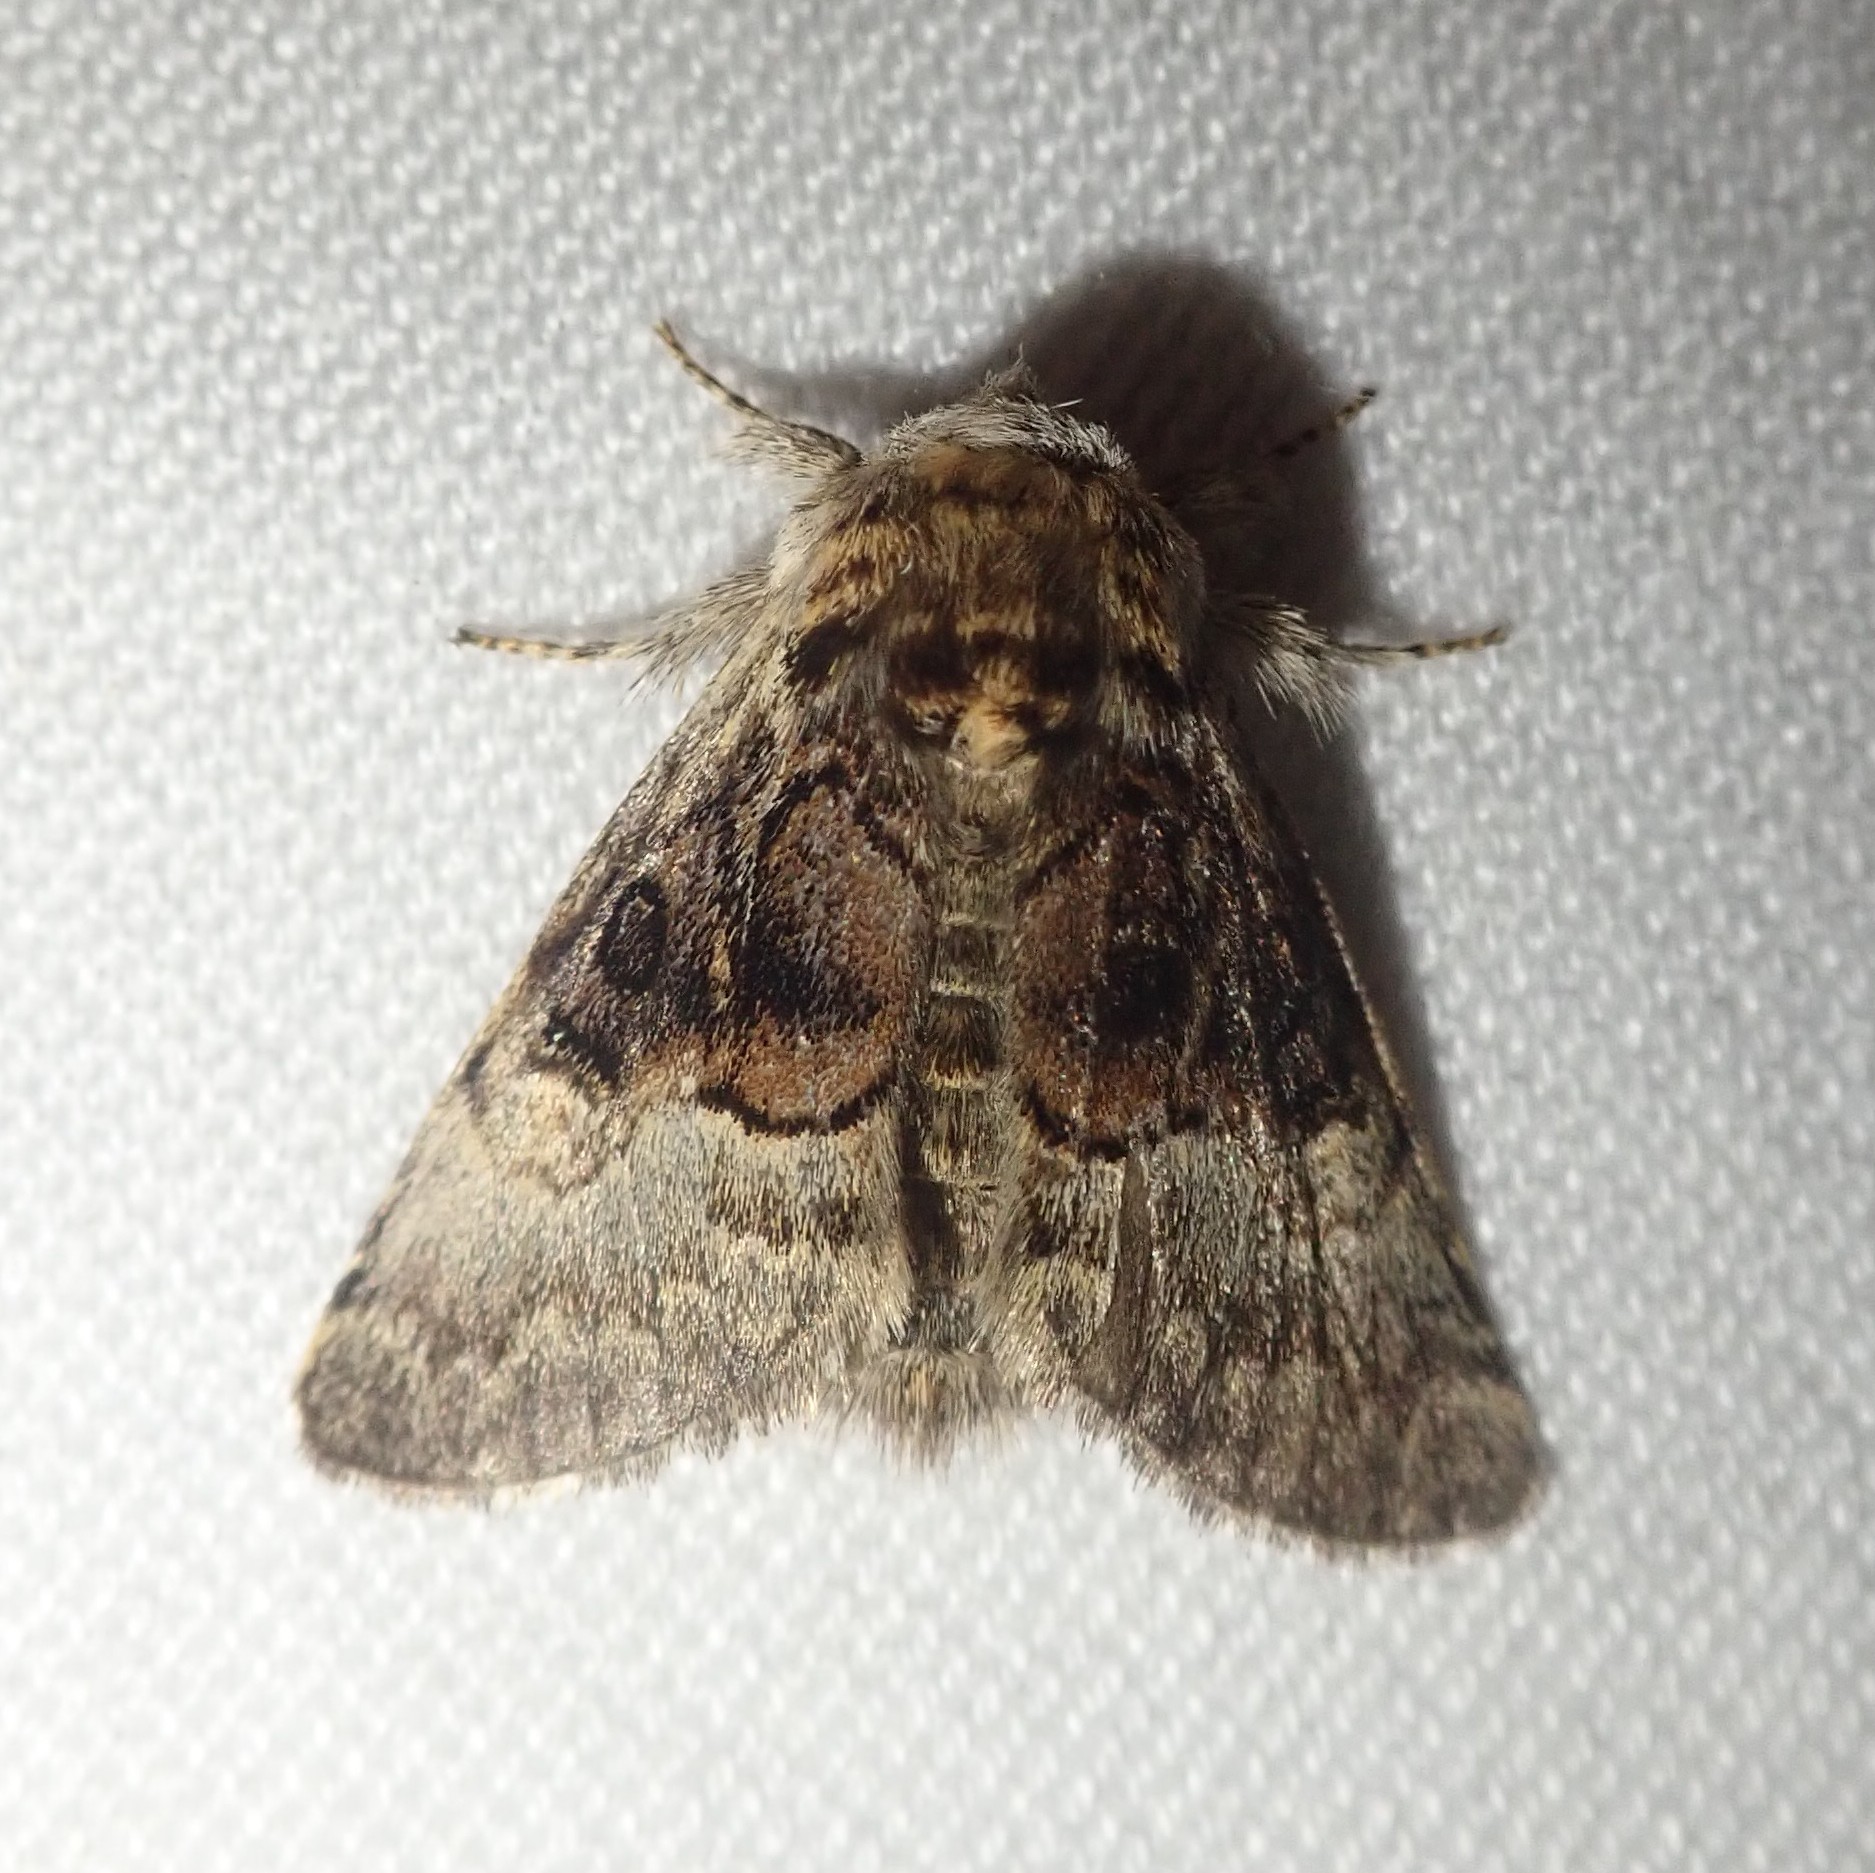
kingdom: Animalia
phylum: Arthropoda
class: Insecta
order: Lepidoptera
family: Noctuidae
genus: Colocasia
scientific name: Colocasia coryli
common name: Nut-tree tussock
